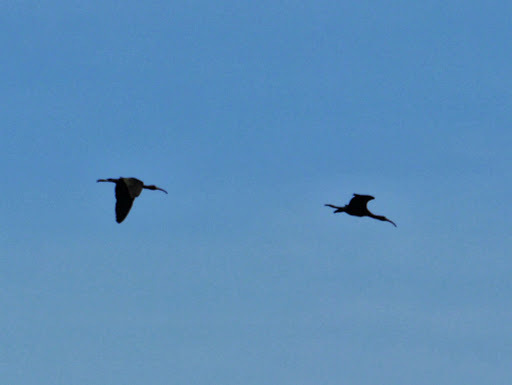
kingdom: Animalia
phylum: Chordata
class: Aves
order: Pelecaniformes
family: Threskiornithidae
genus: Plegadis
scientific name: Plegadis falcinellus
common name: Glossy ibis
